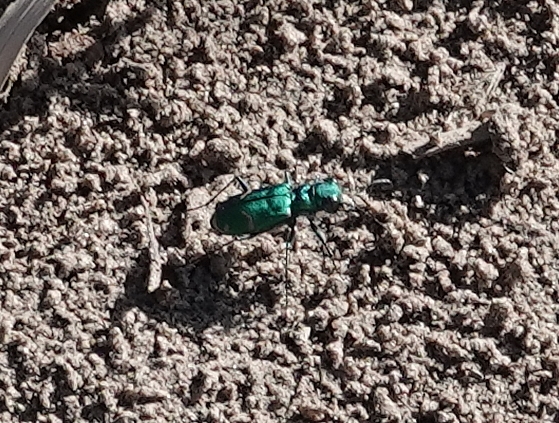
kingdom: Animalia
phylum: Arthropoda
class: Insecta
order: Coleoptera
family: Carabidae
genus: Cicindela
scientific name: Cicindela denverensis
